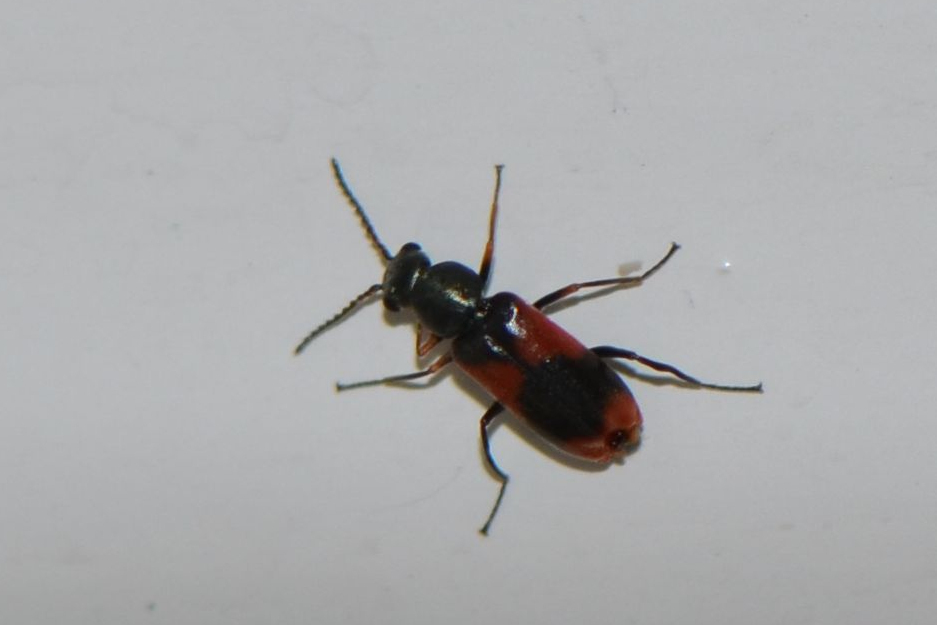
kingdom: Animalia
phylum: Arthropoda
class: Insecta
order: Coleoptera
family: Melyridae
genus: Anthocomus
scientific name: Anthocomus equestris
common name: Black-banded soft-winged flower beetle
